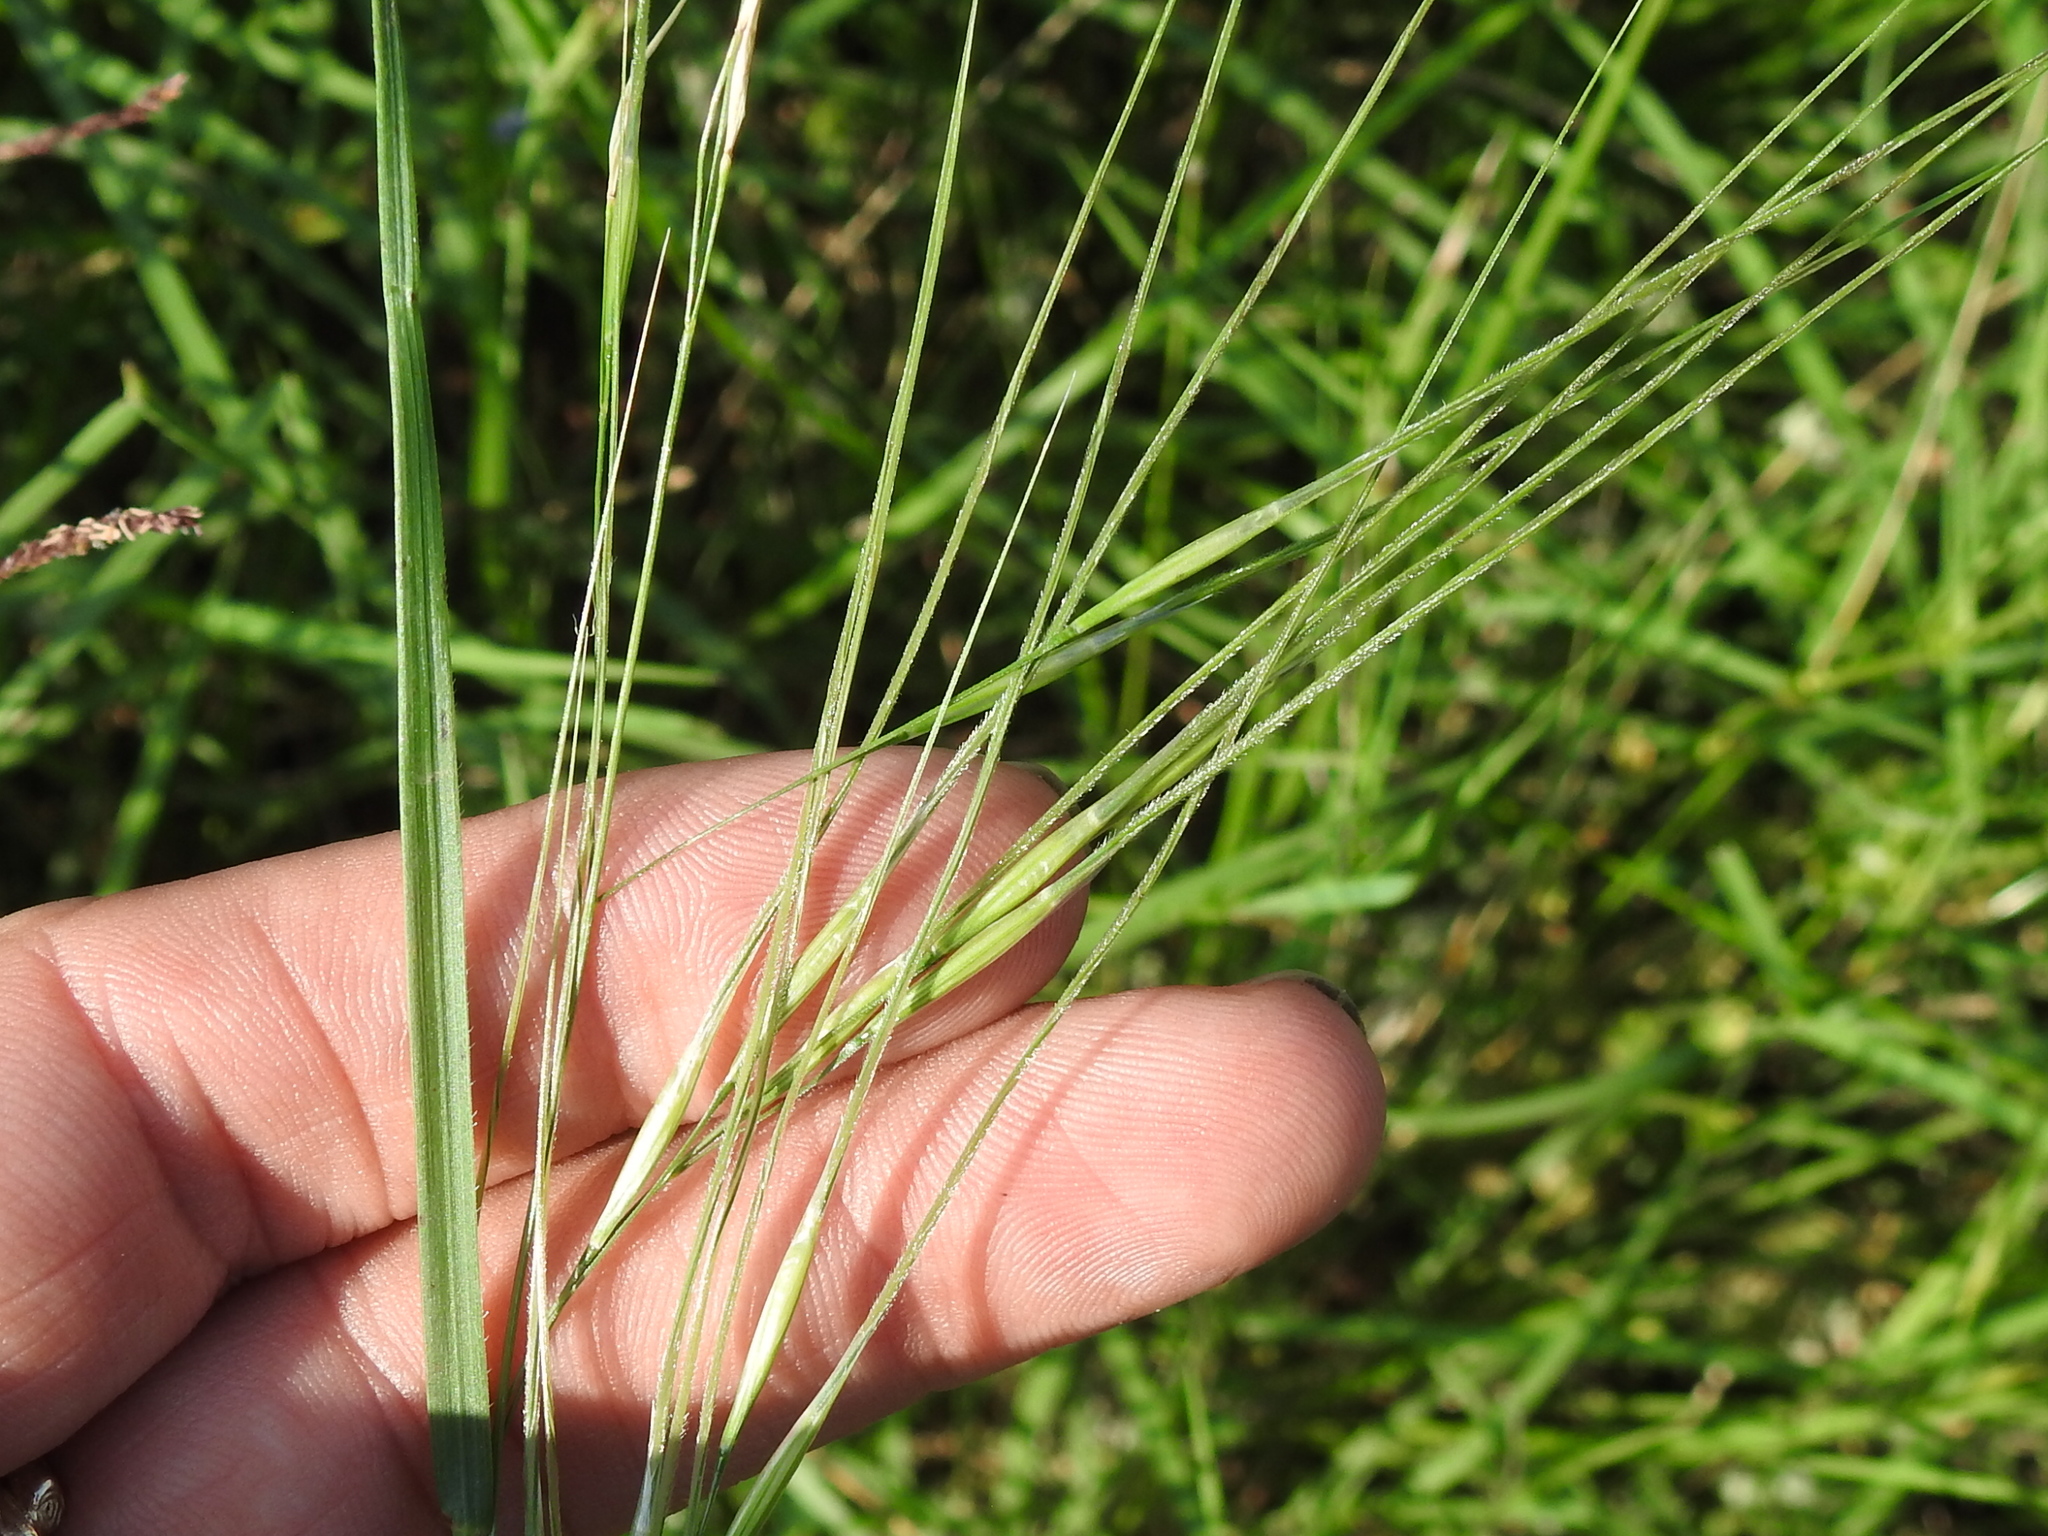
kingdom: Plantae
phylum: Tracheophyta
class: Liliopsida
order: Poales
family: Poaceae
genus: Nassella
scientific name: Nassella leucotricha
